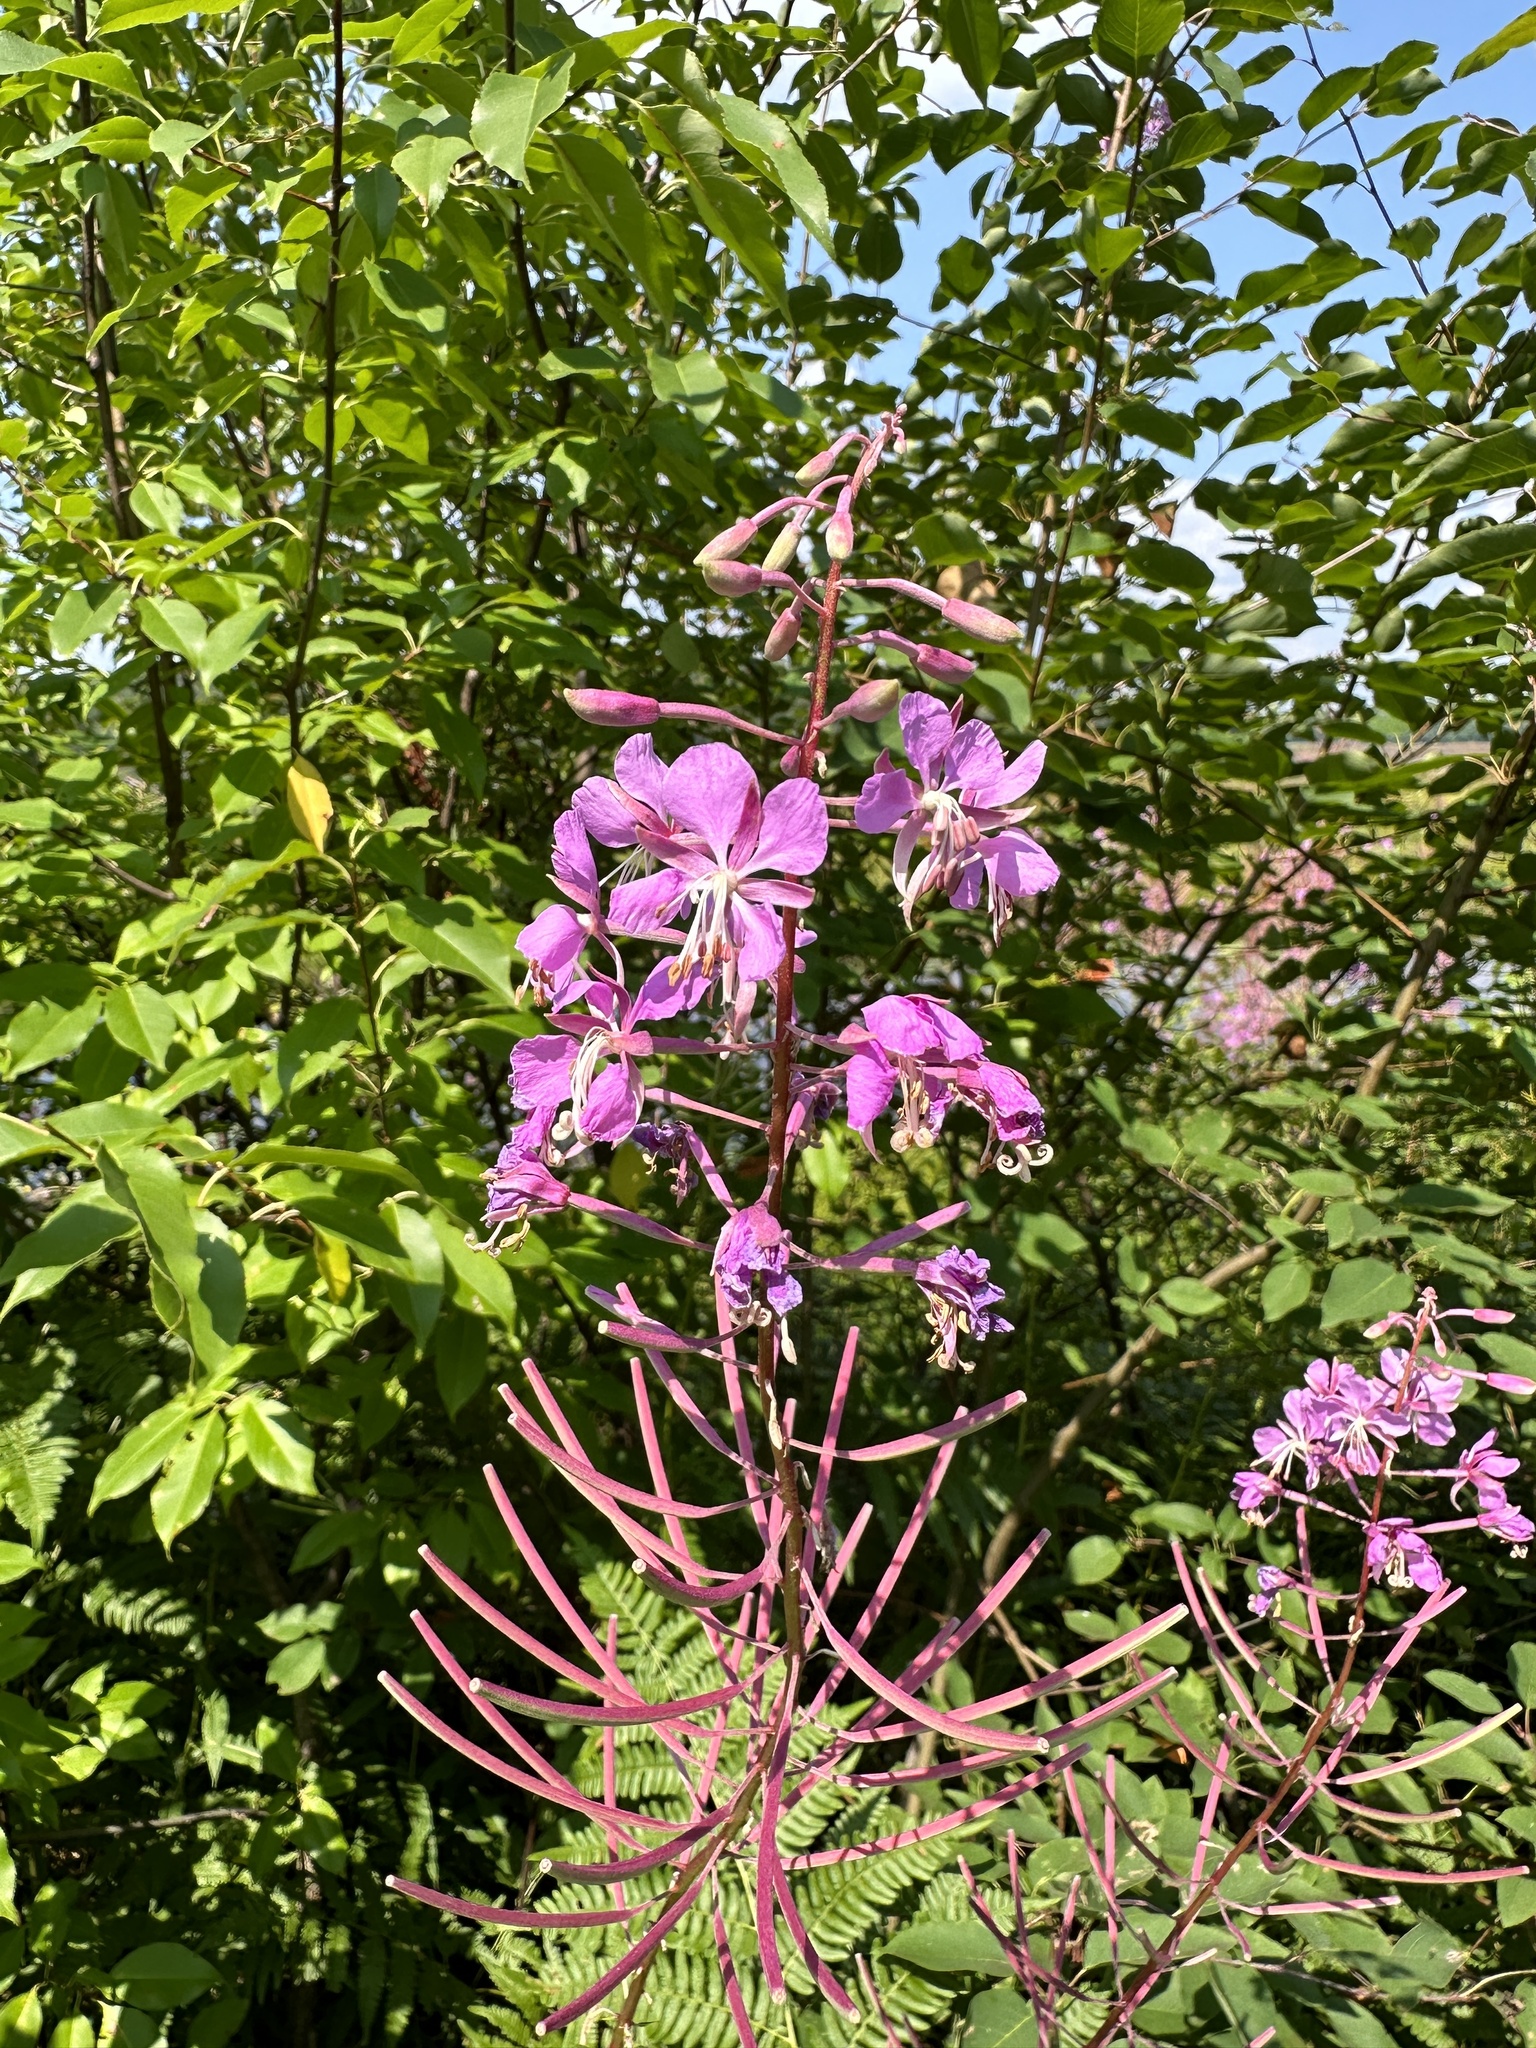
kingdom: Plantae
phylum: Tracheophyta
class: Magnoliopsida
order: Myrtales
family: Onagraceae
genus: Chamaenerion
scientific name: Chamaenerion angustifolium
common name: Fireweed
